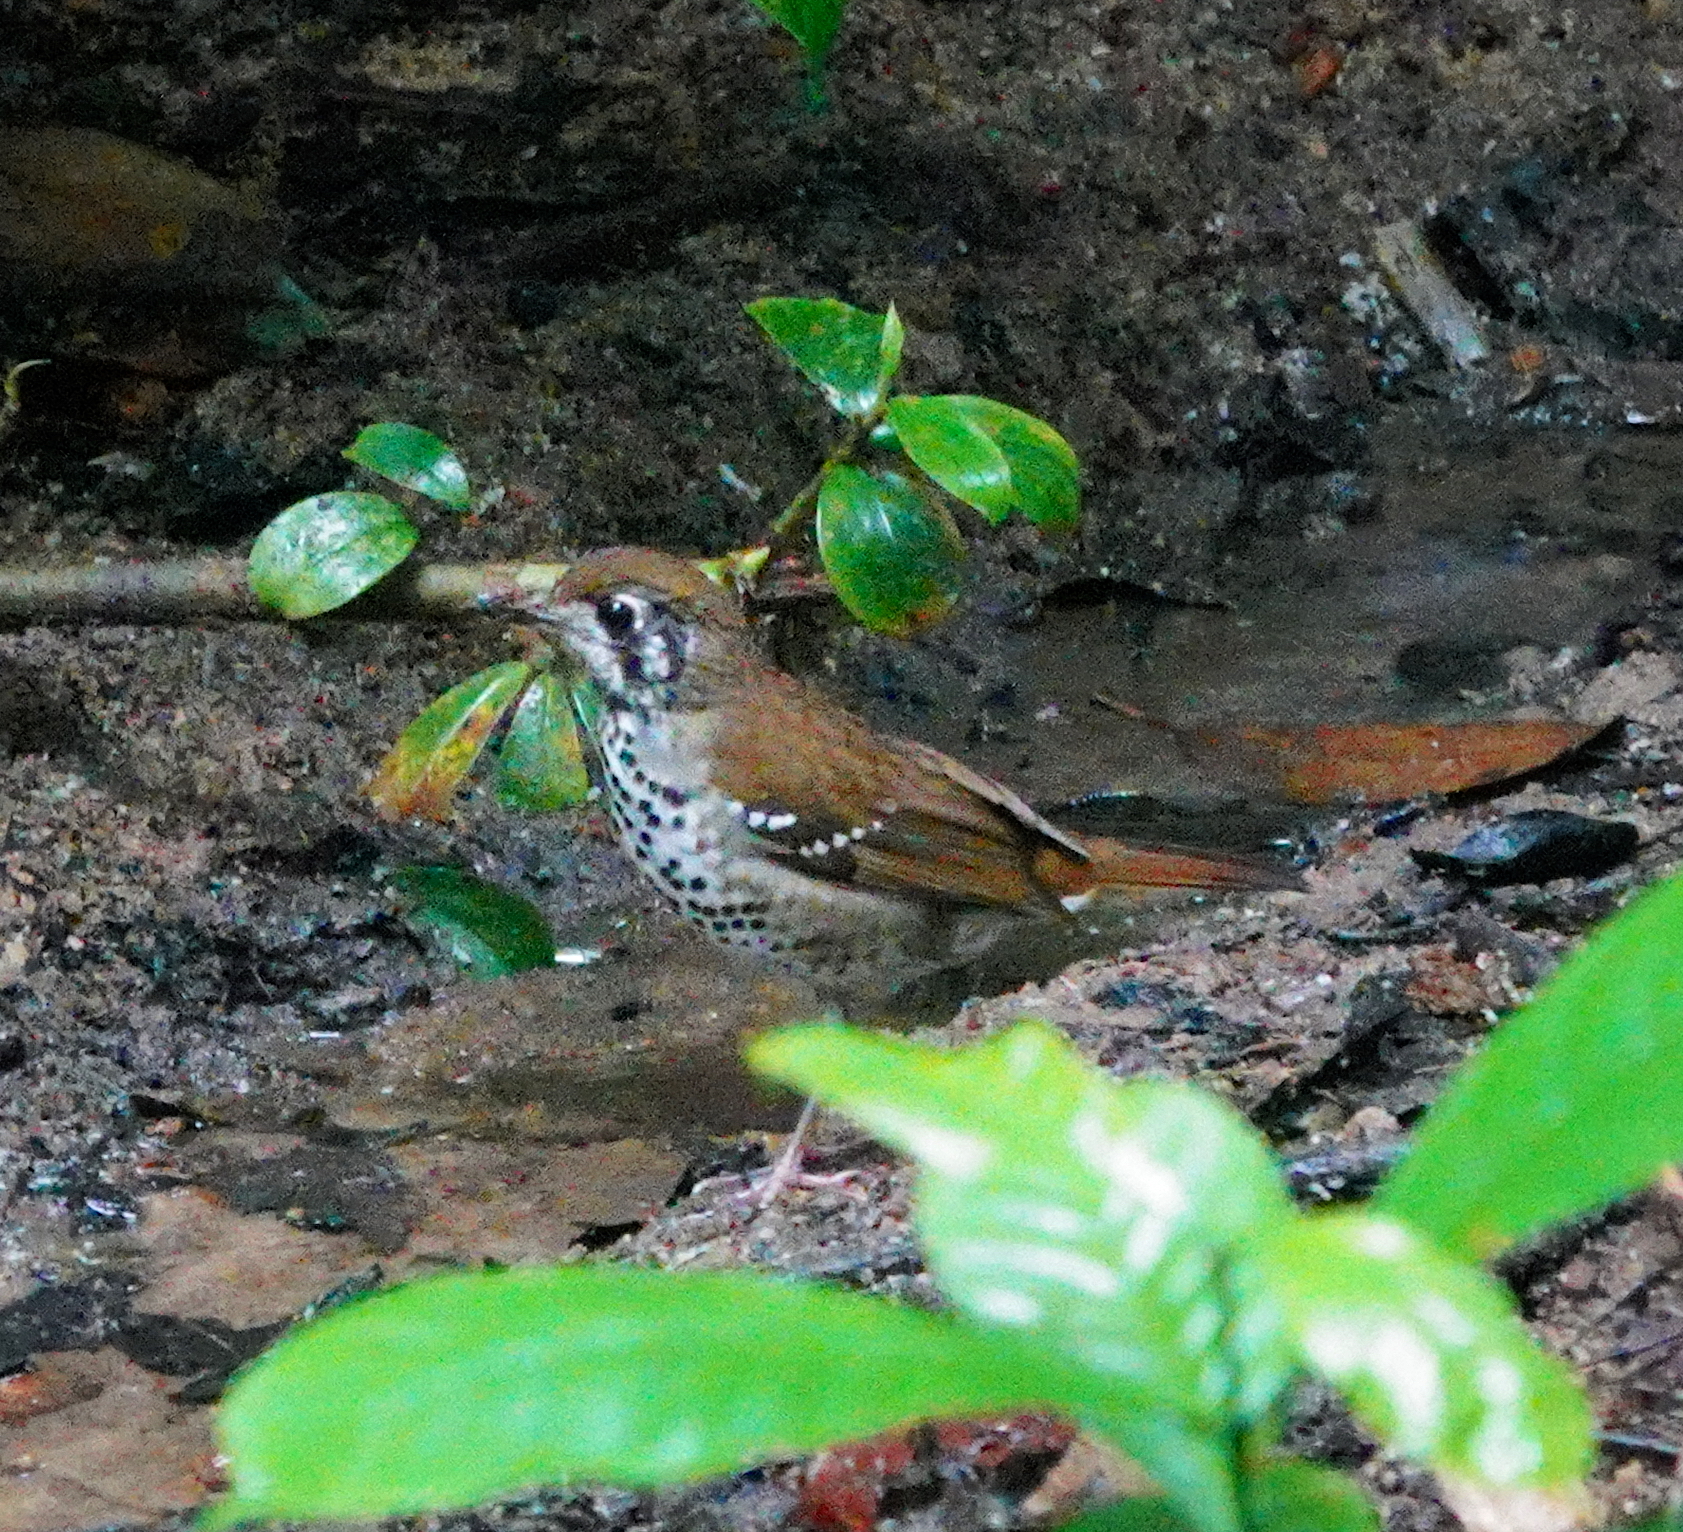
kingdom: Animalia
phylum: Chordata
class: Aves
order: Passeriformes
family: Turdidae
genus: Geokichla
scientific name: Geokichla spiloptera
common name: Spot-winged thrush
